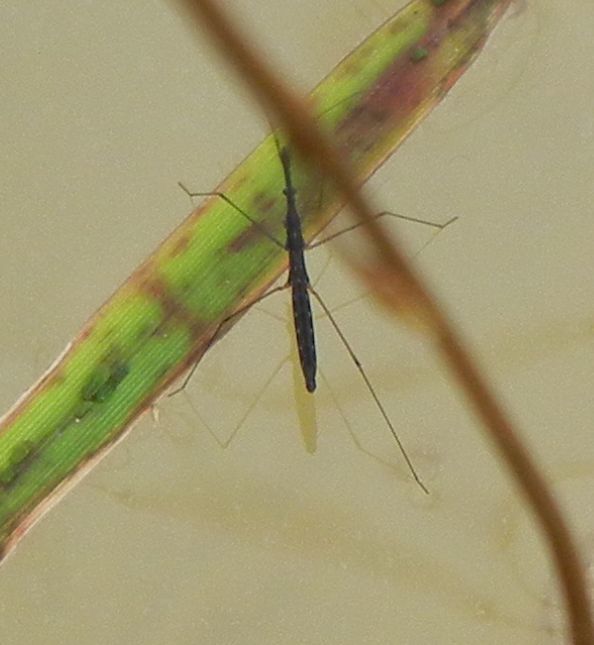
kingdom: Animalia
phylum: Arthropoda
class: Insecta
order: Hemiptera
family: Hydrometridae
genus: Hydrometra
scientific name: Hydrometra stagnorum
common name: Water measurer
